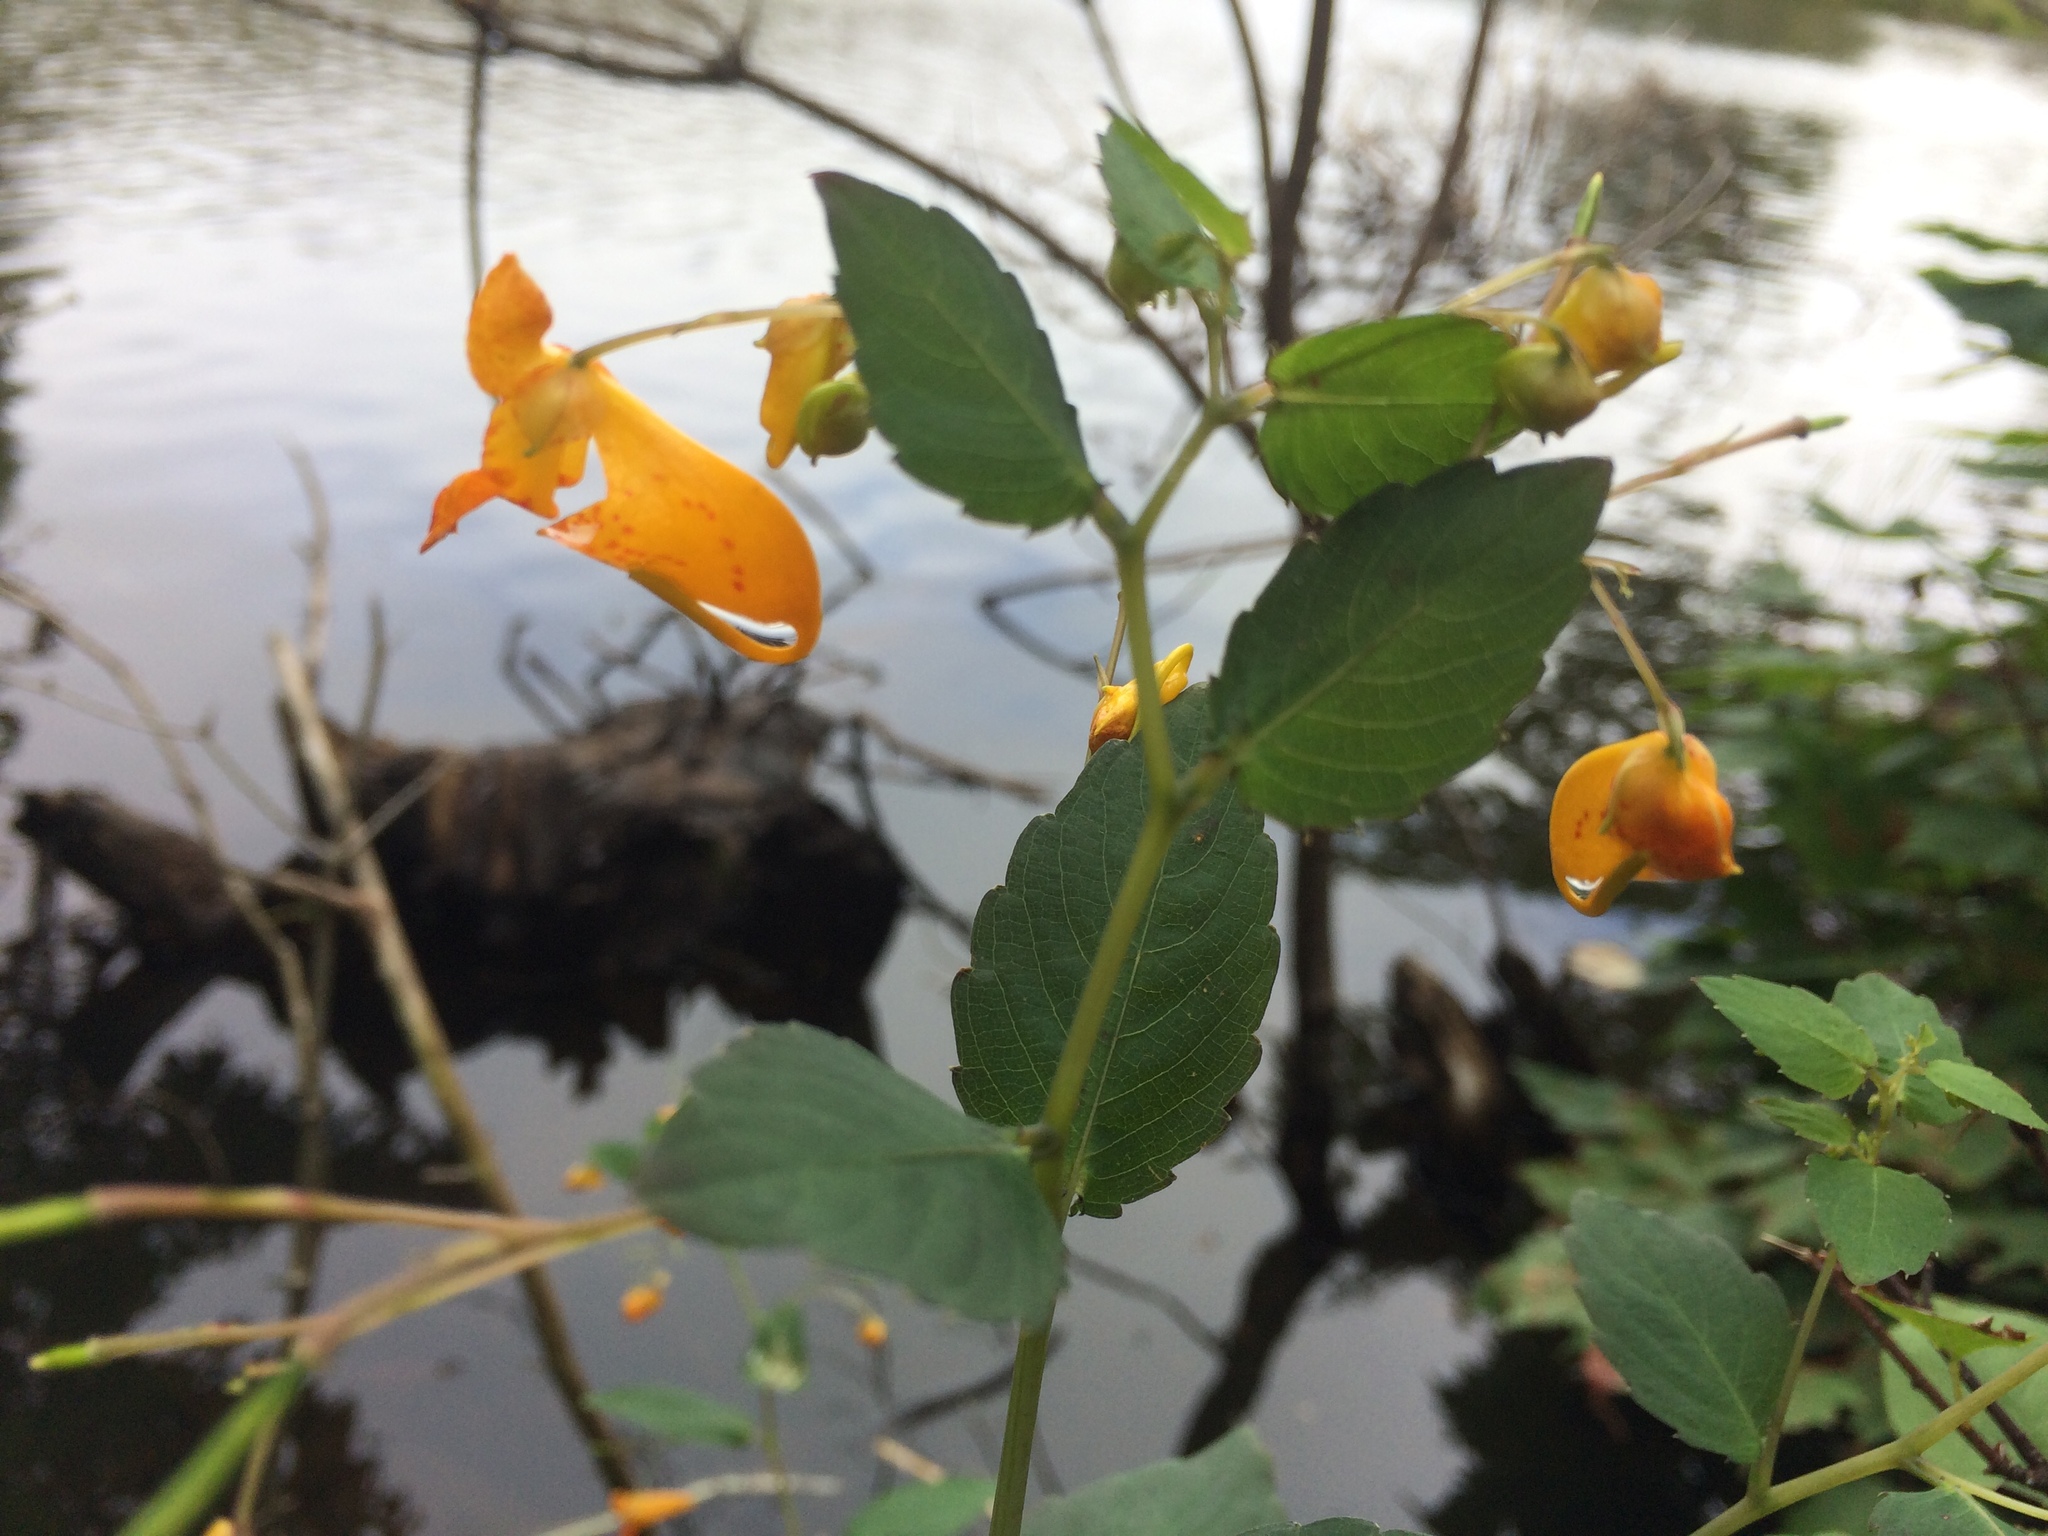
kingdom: Plantae
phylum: Tracheophyta
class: Magnoliopsida
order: Ericales
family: Balsaminaceae
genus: Impatiens
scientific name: Impatiens capensis
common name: Orange balsam
